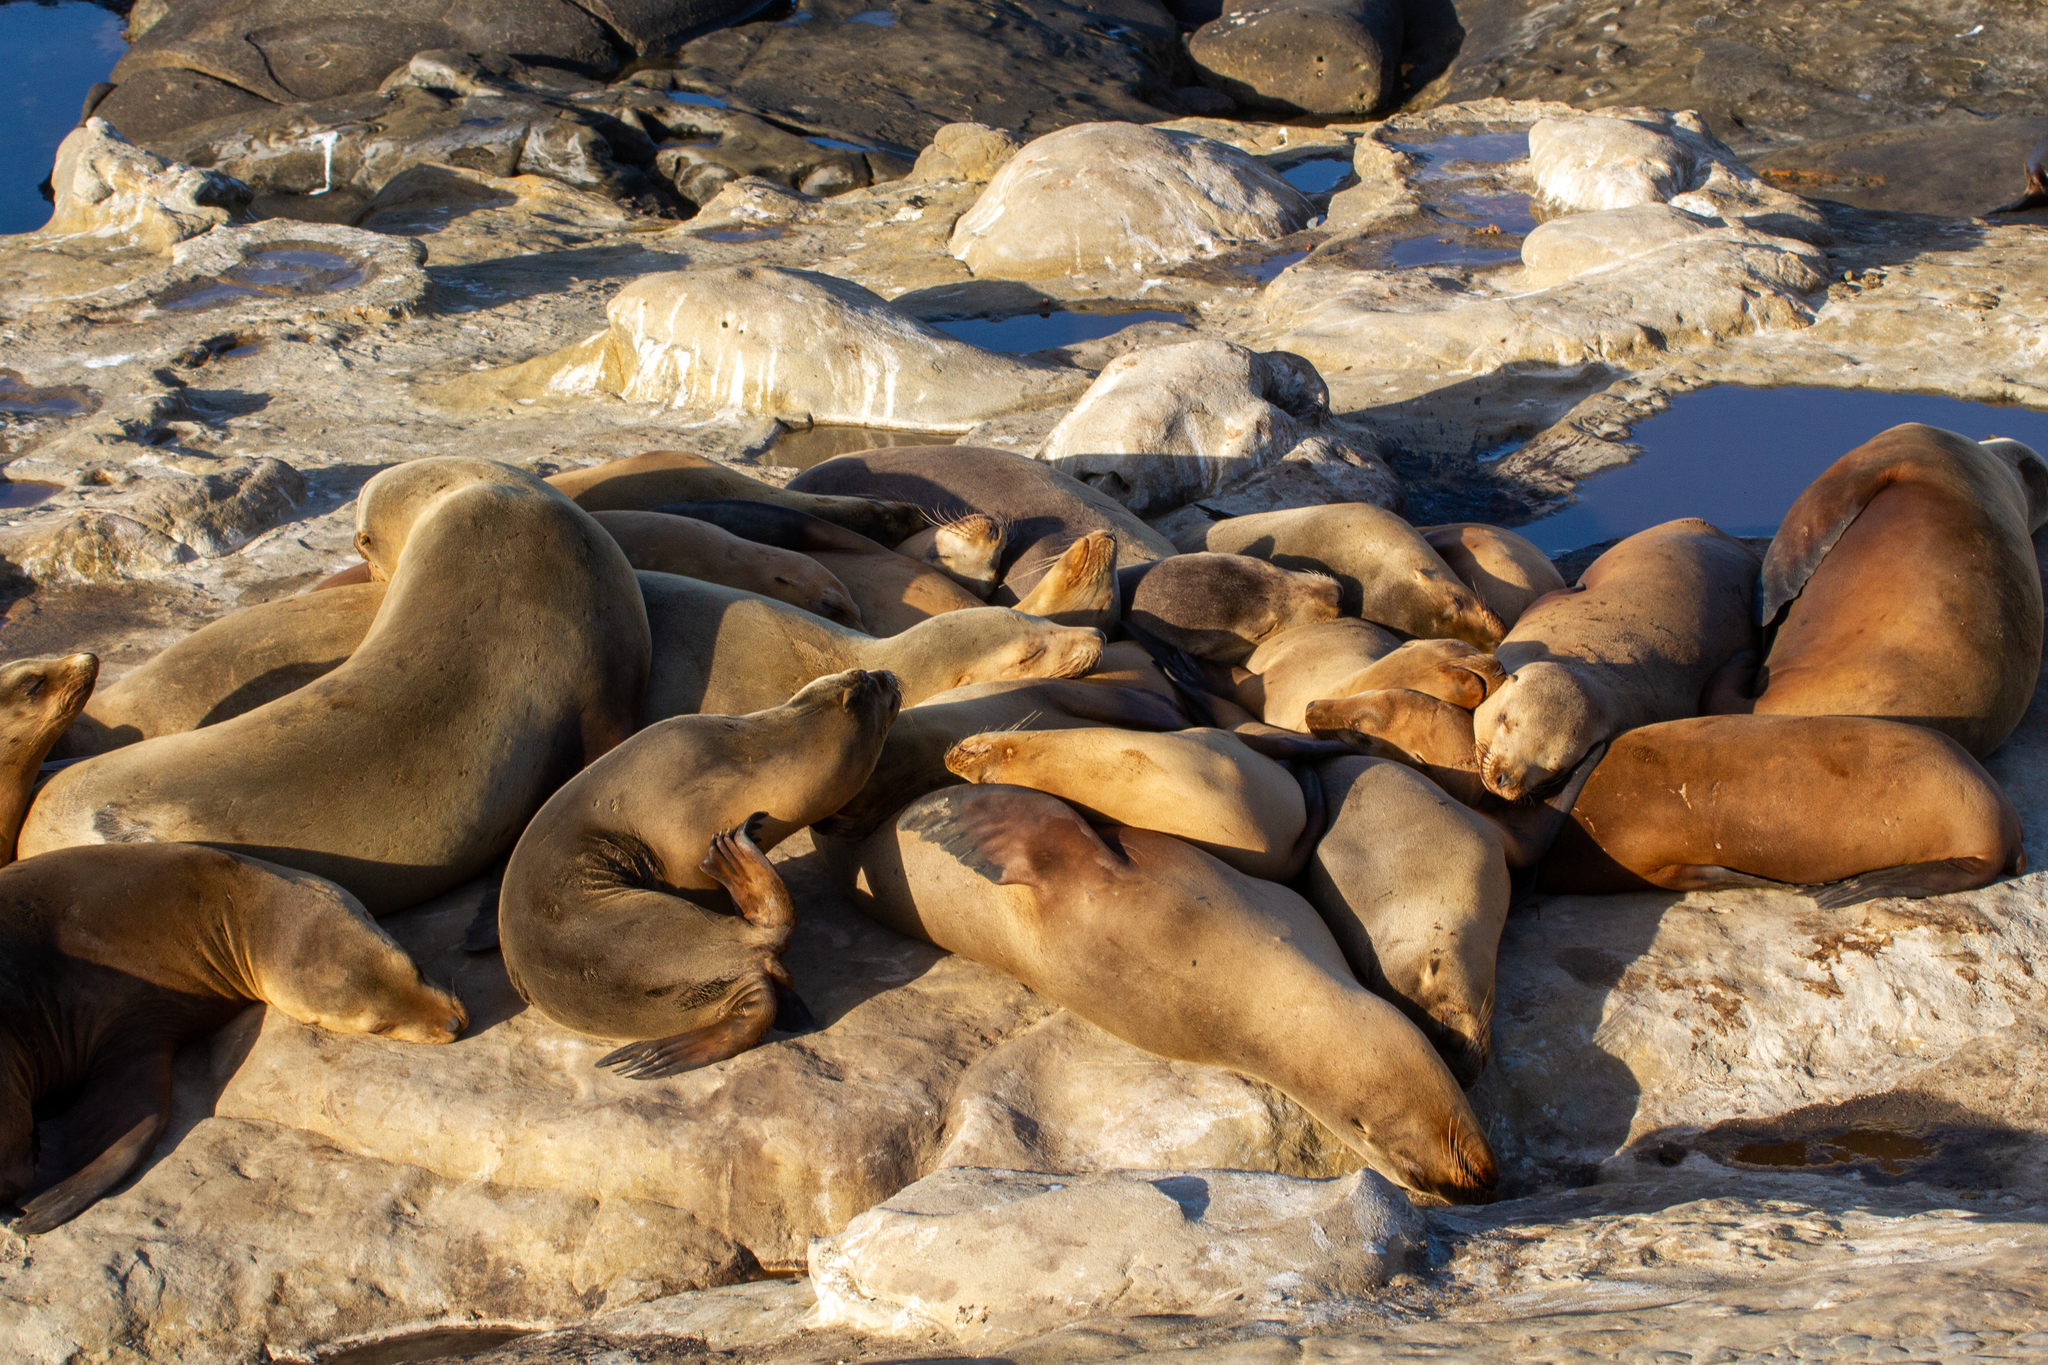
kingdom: Animalia
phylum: Chordata
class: Mammalia
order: Carnivora
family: Otariidae
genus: Zalophus
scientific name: Zalophus californianus
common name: California sea lion
